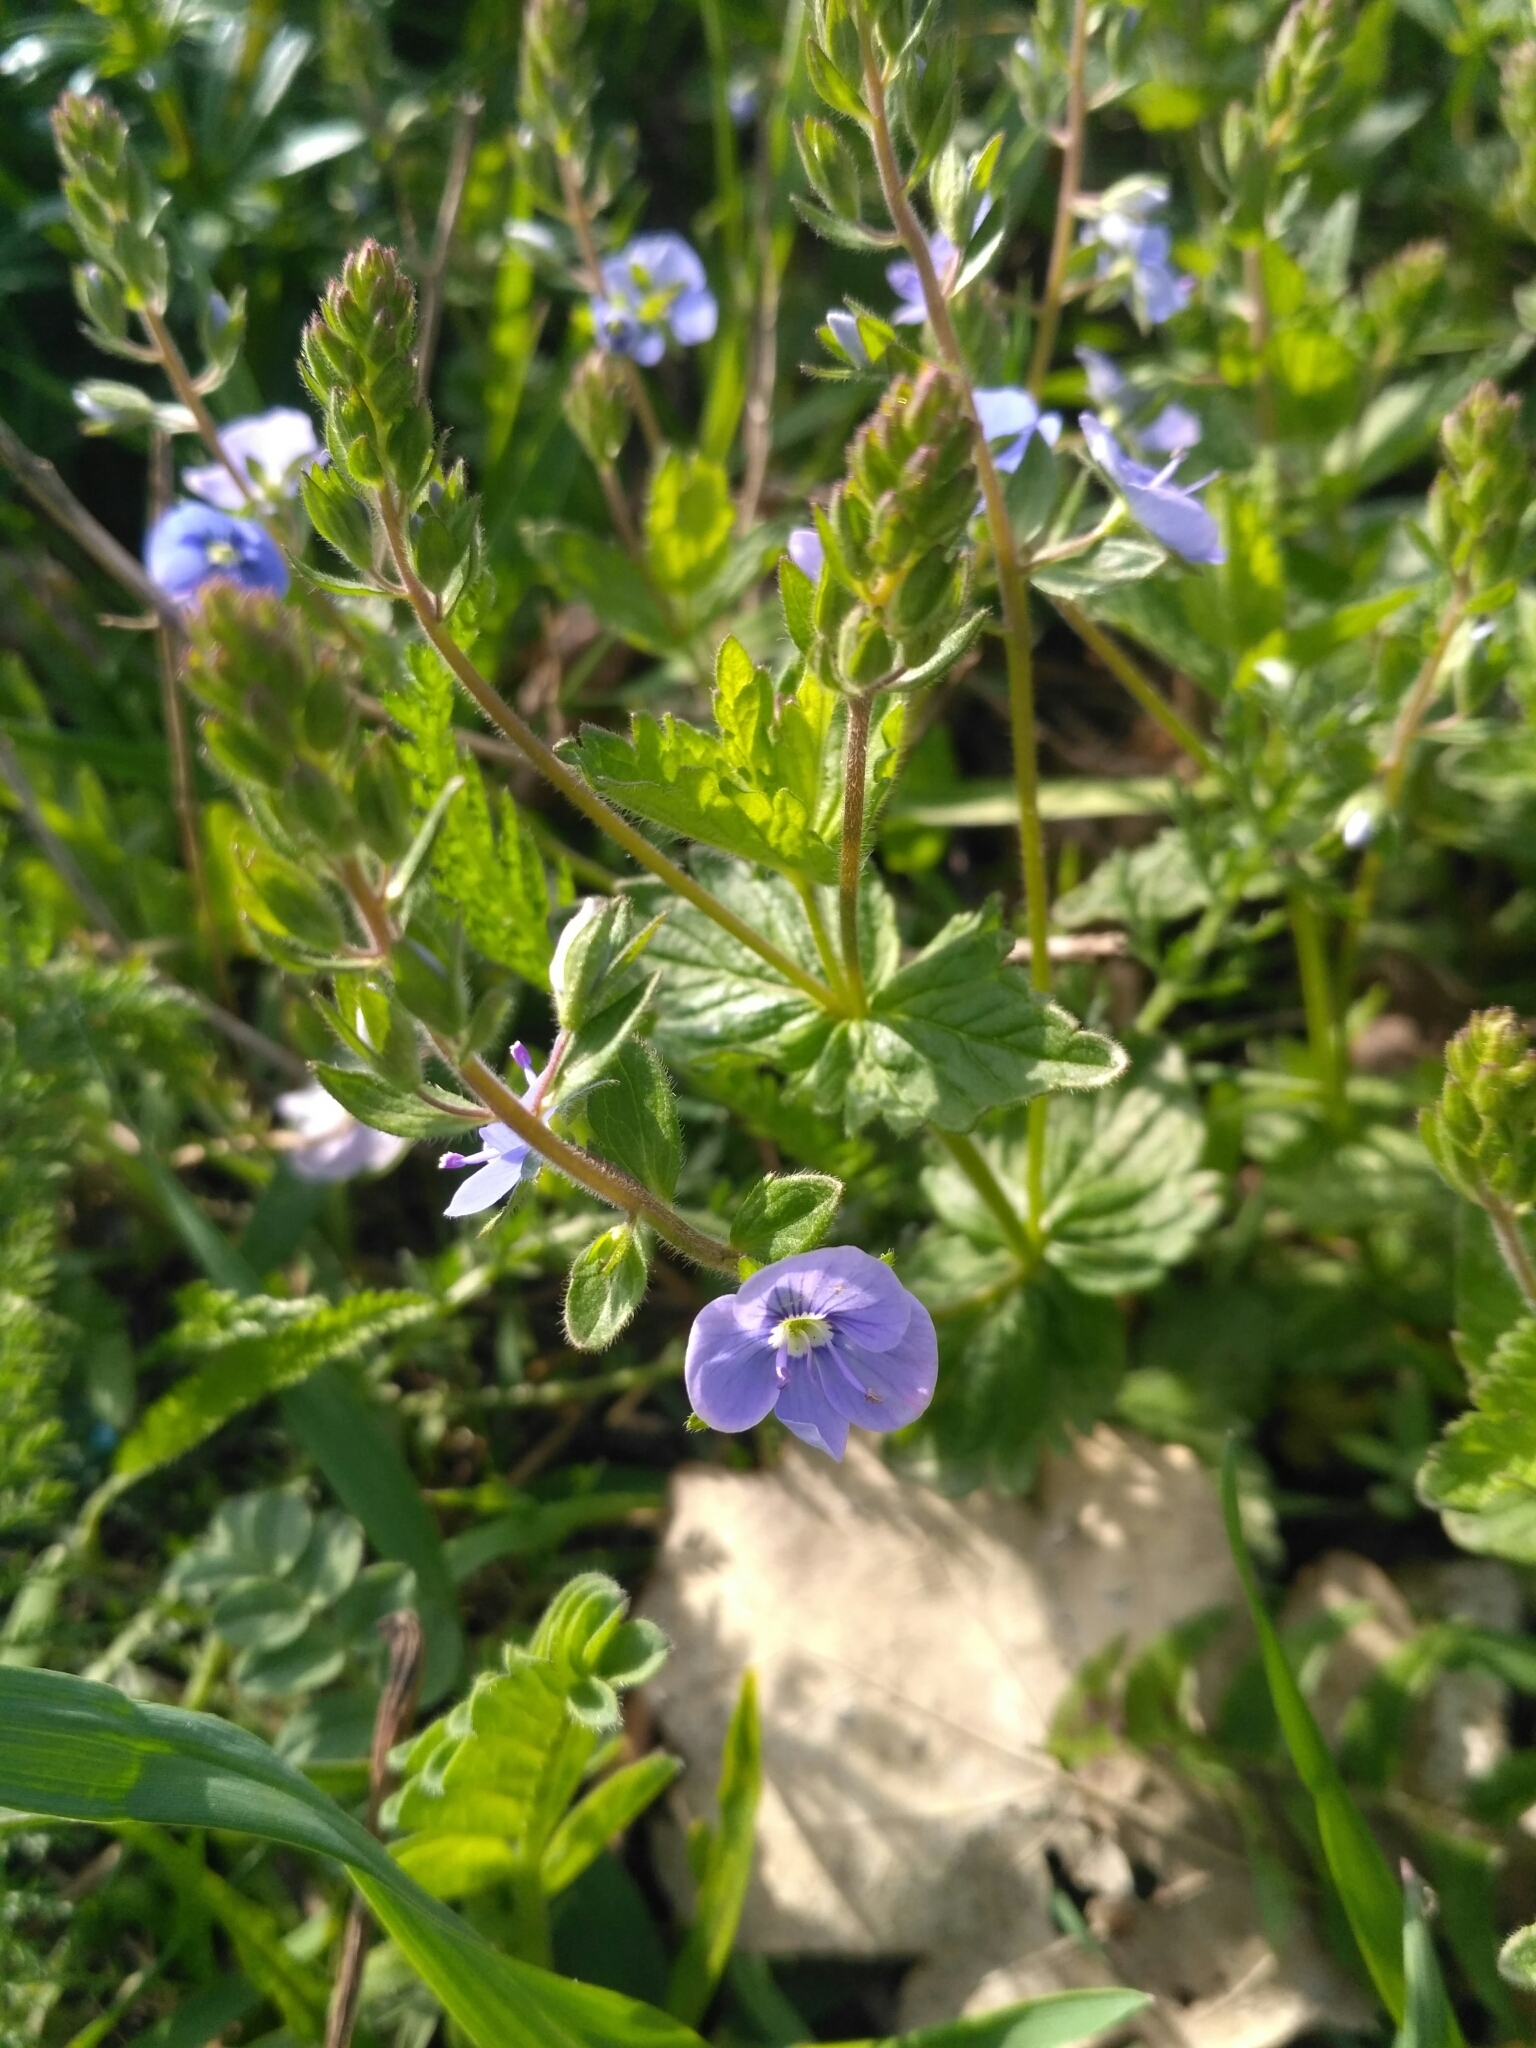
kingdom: Plantae
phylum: Tracheophyta
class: Magnoliopsida
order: Lamiales
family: Plantaginaceae
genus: Veronica
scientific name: Veronica chamaedrys
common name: Germander speedwell
